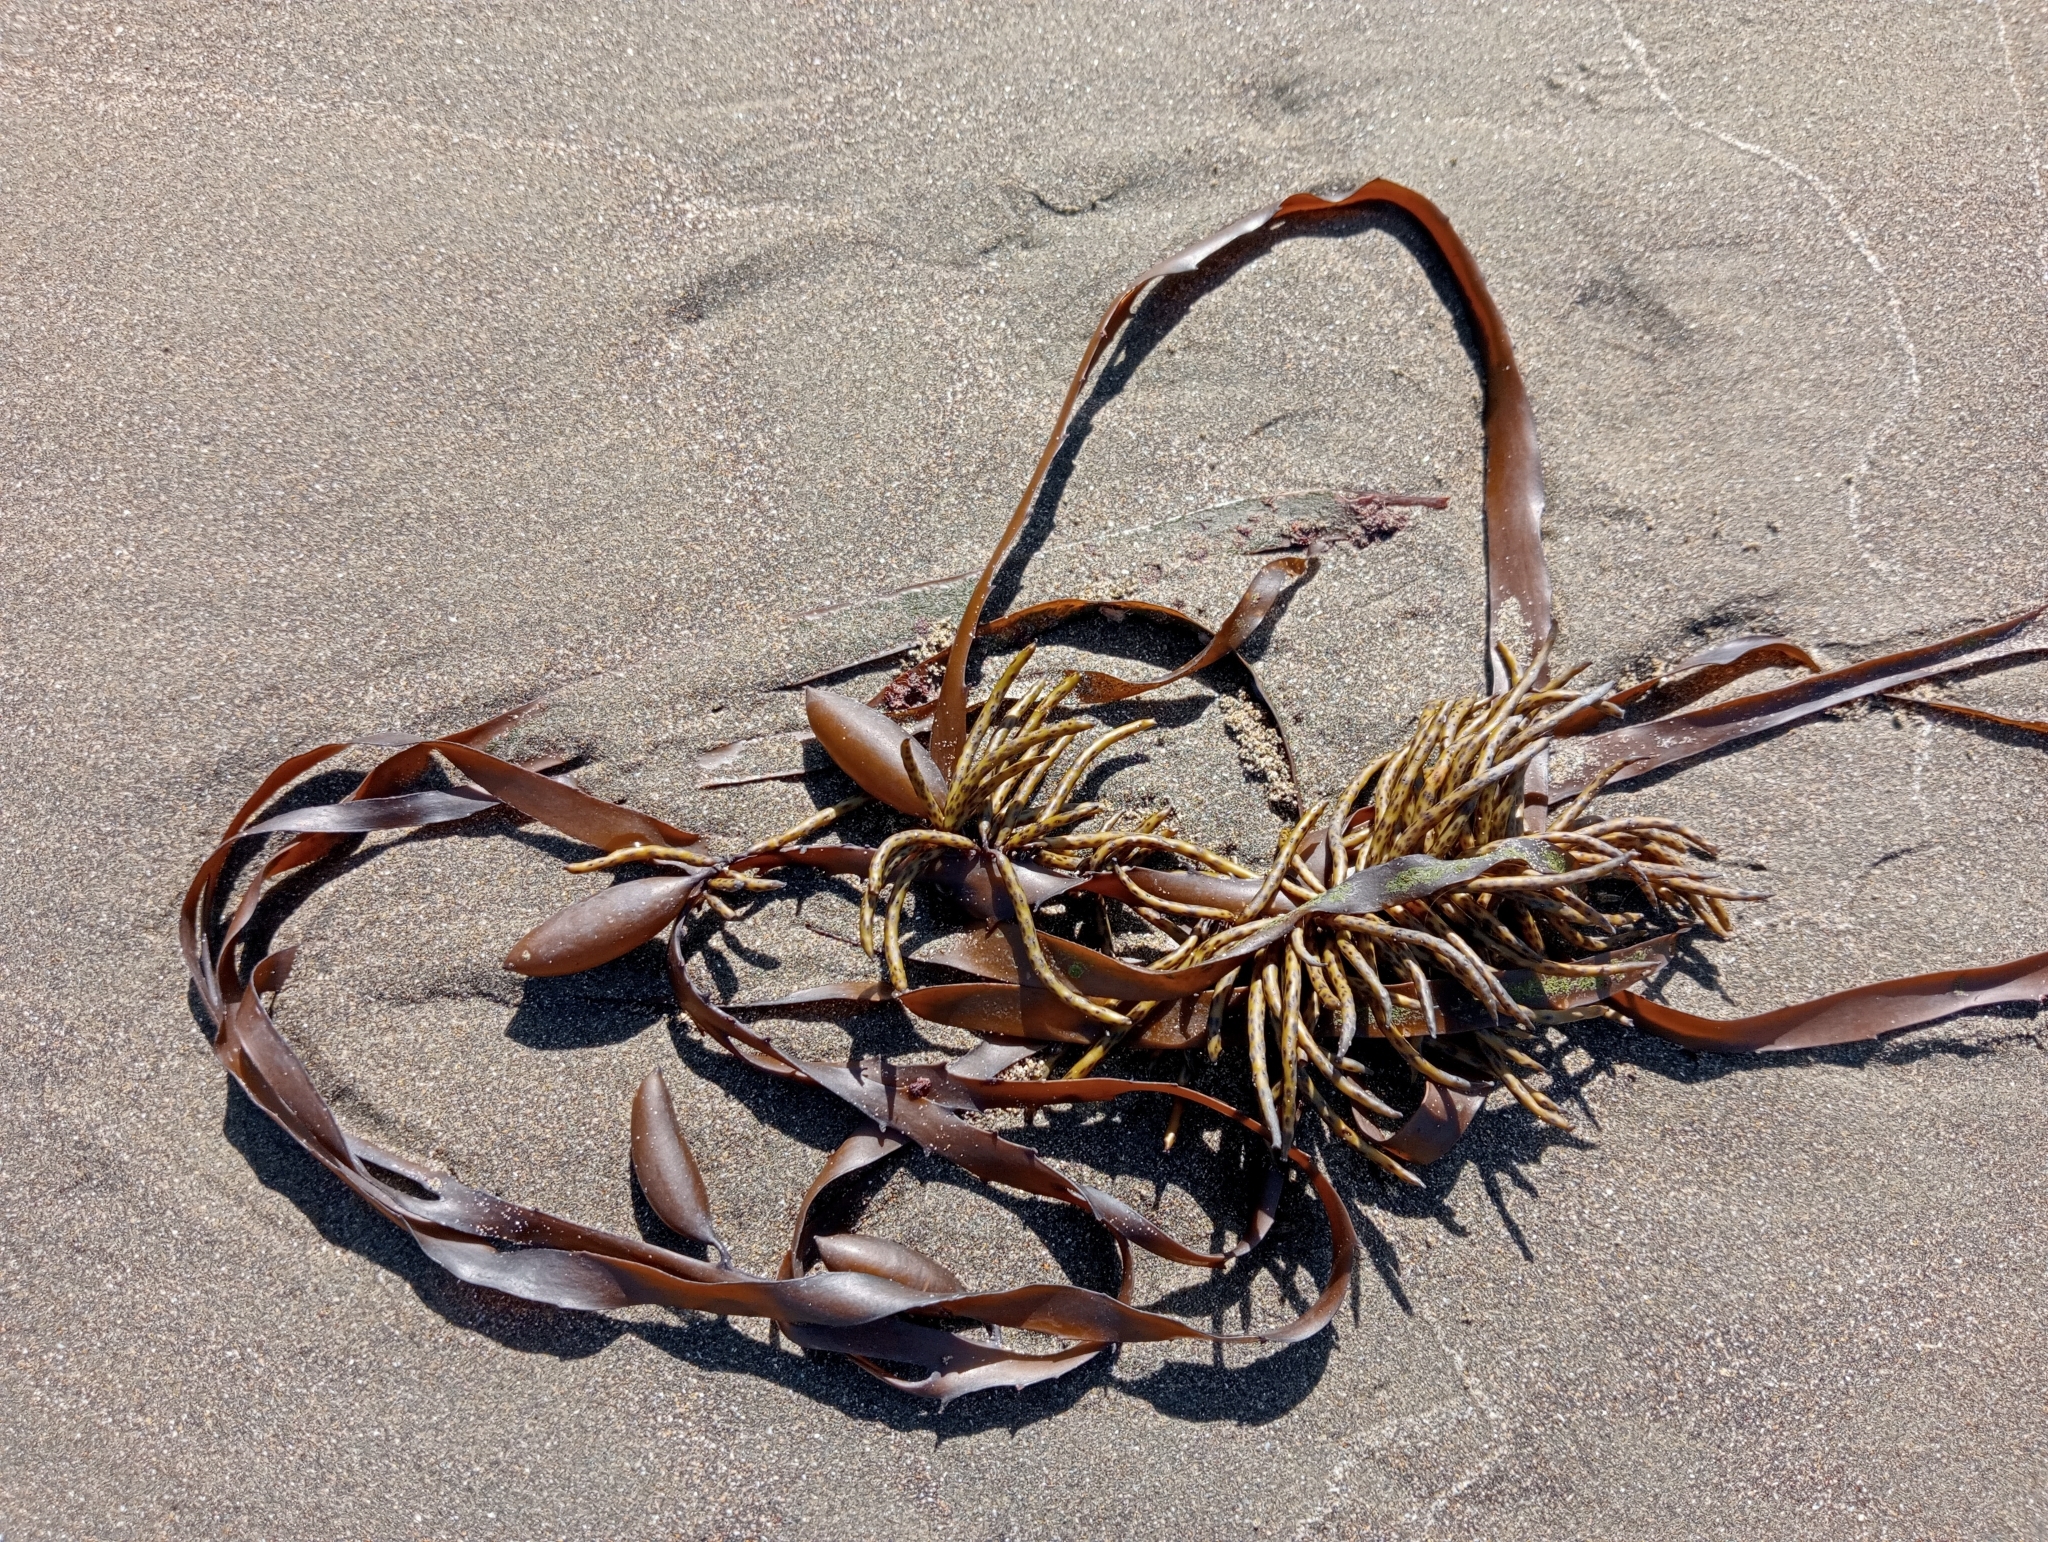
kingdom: Chromista
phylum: Ochrophyta
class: Phaeophyceae
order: Fucales
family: Seirococcaceae
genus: Marginariella
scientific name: Marginariella boryana
